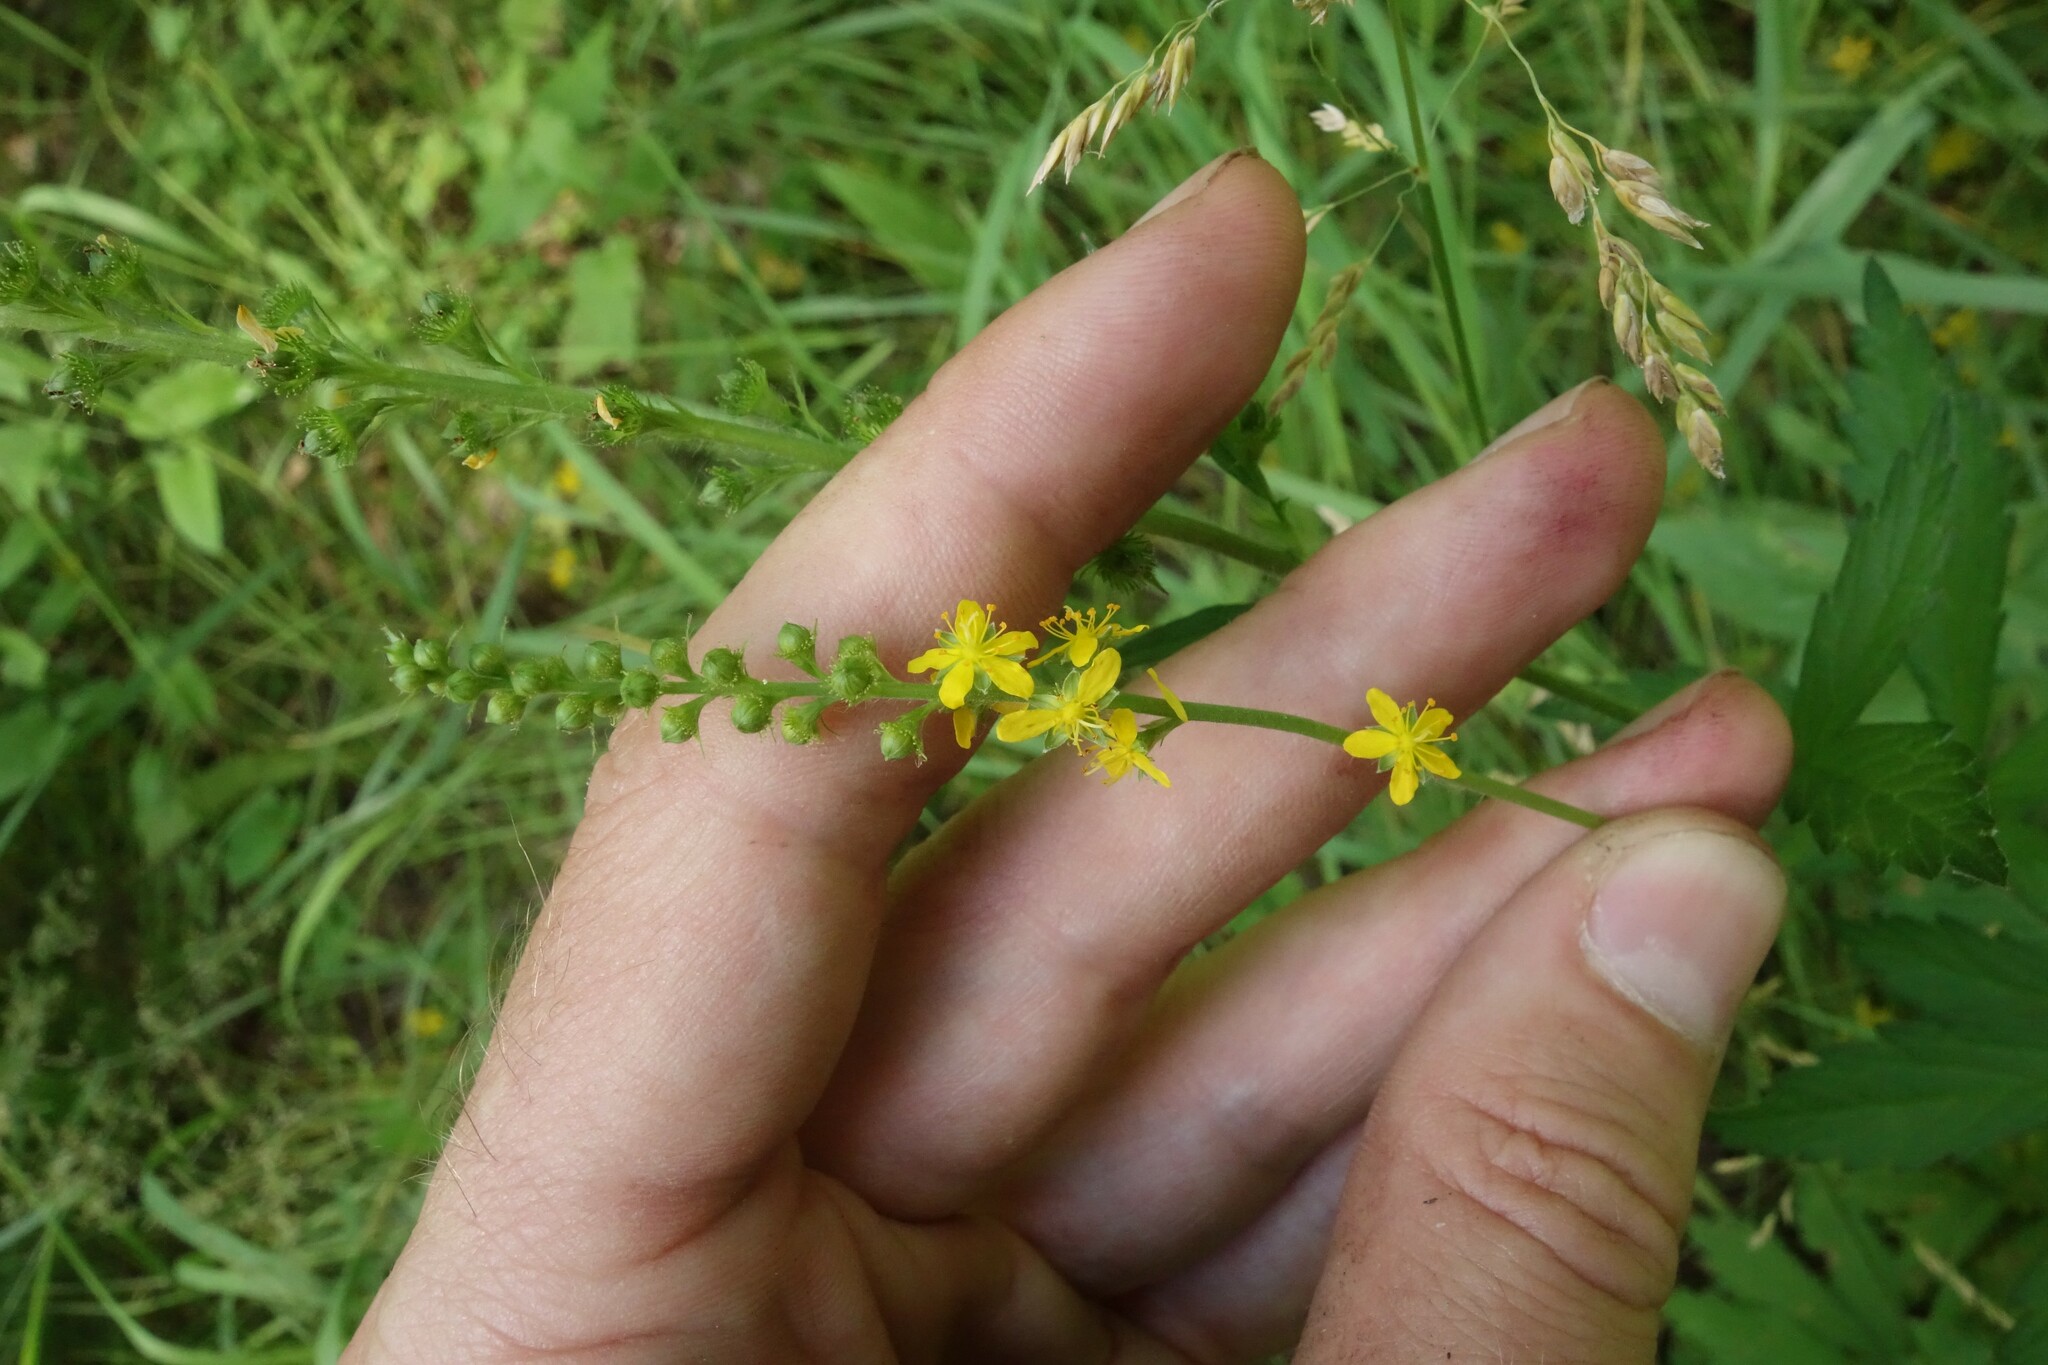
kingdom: Plantae
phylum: Tracheophyta
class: Magnoliopsida
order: Rosales
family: Rosaceae
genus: Agrimonia
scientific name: Agrimonia pilosa
